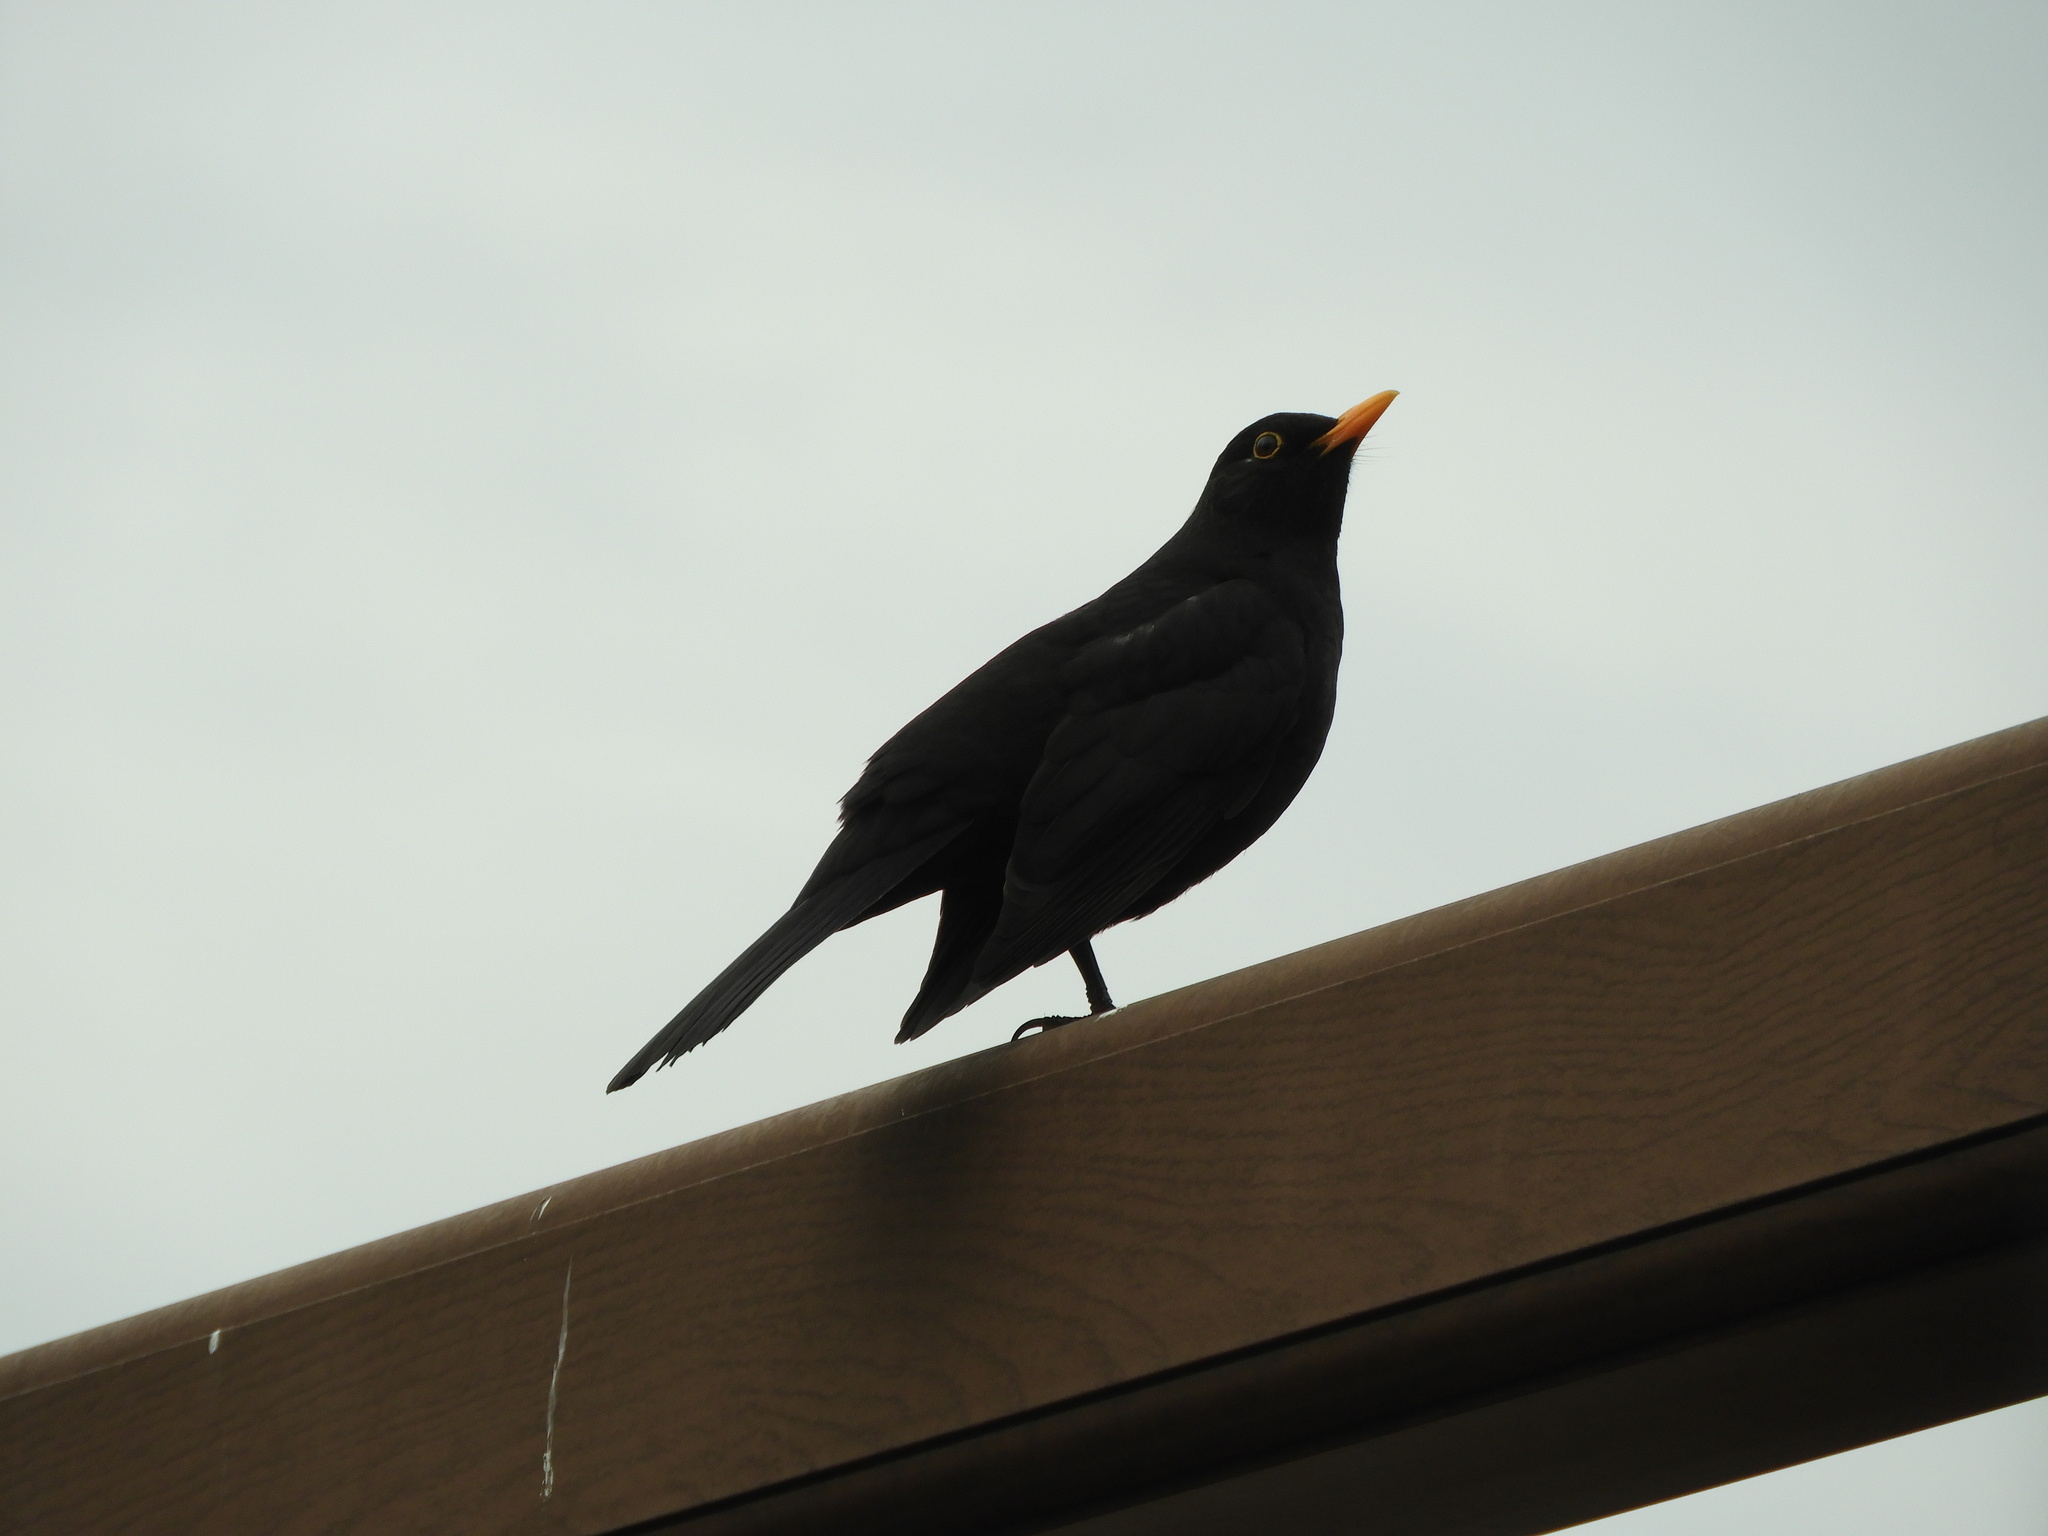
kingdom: Animalia
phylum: Chordata
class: Aves
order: Passeriformes
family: Turdidae
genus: Turdus
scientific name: Turdus merula
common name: Common blackbird
